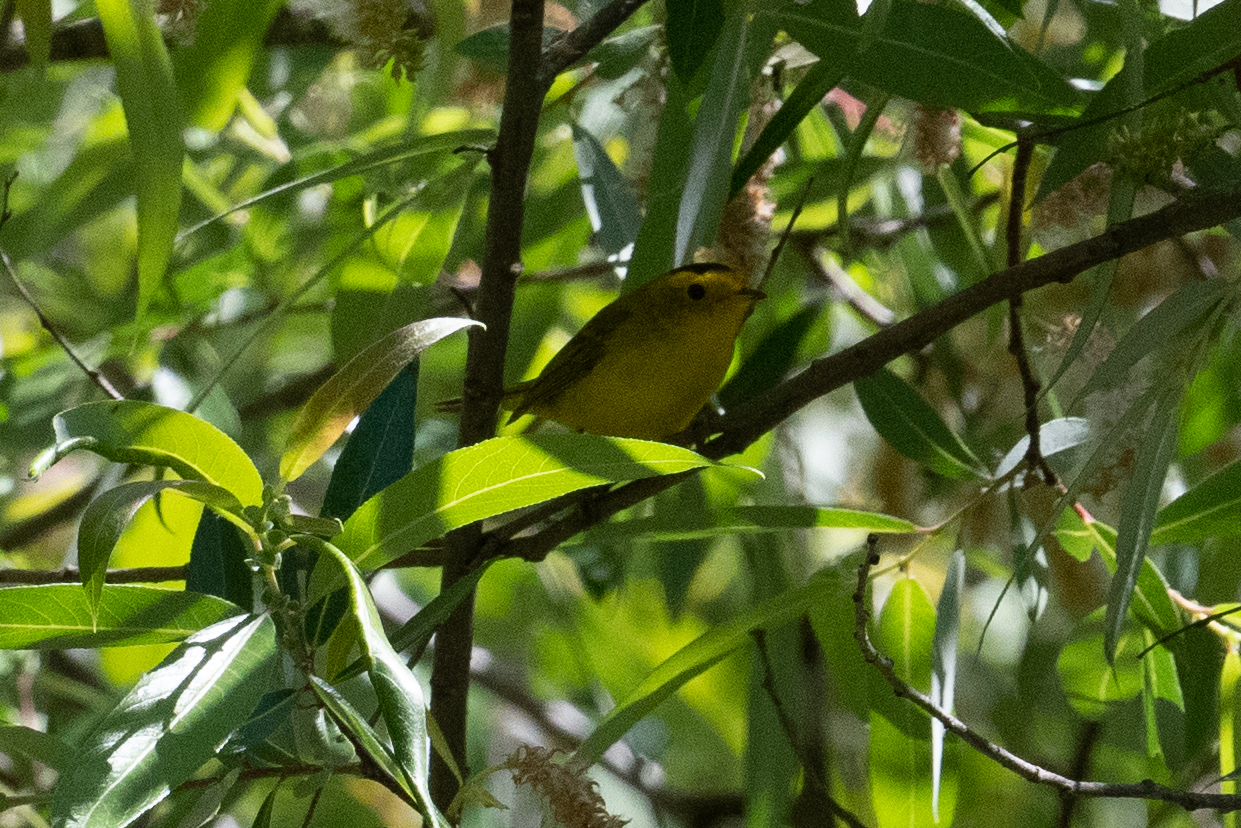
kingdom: Animalia
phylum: Chordata
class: Aves
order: Passeriformes
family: Parulidae
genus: Cardellina
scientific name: Cardellina pusilla
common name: Wilson's warbler
